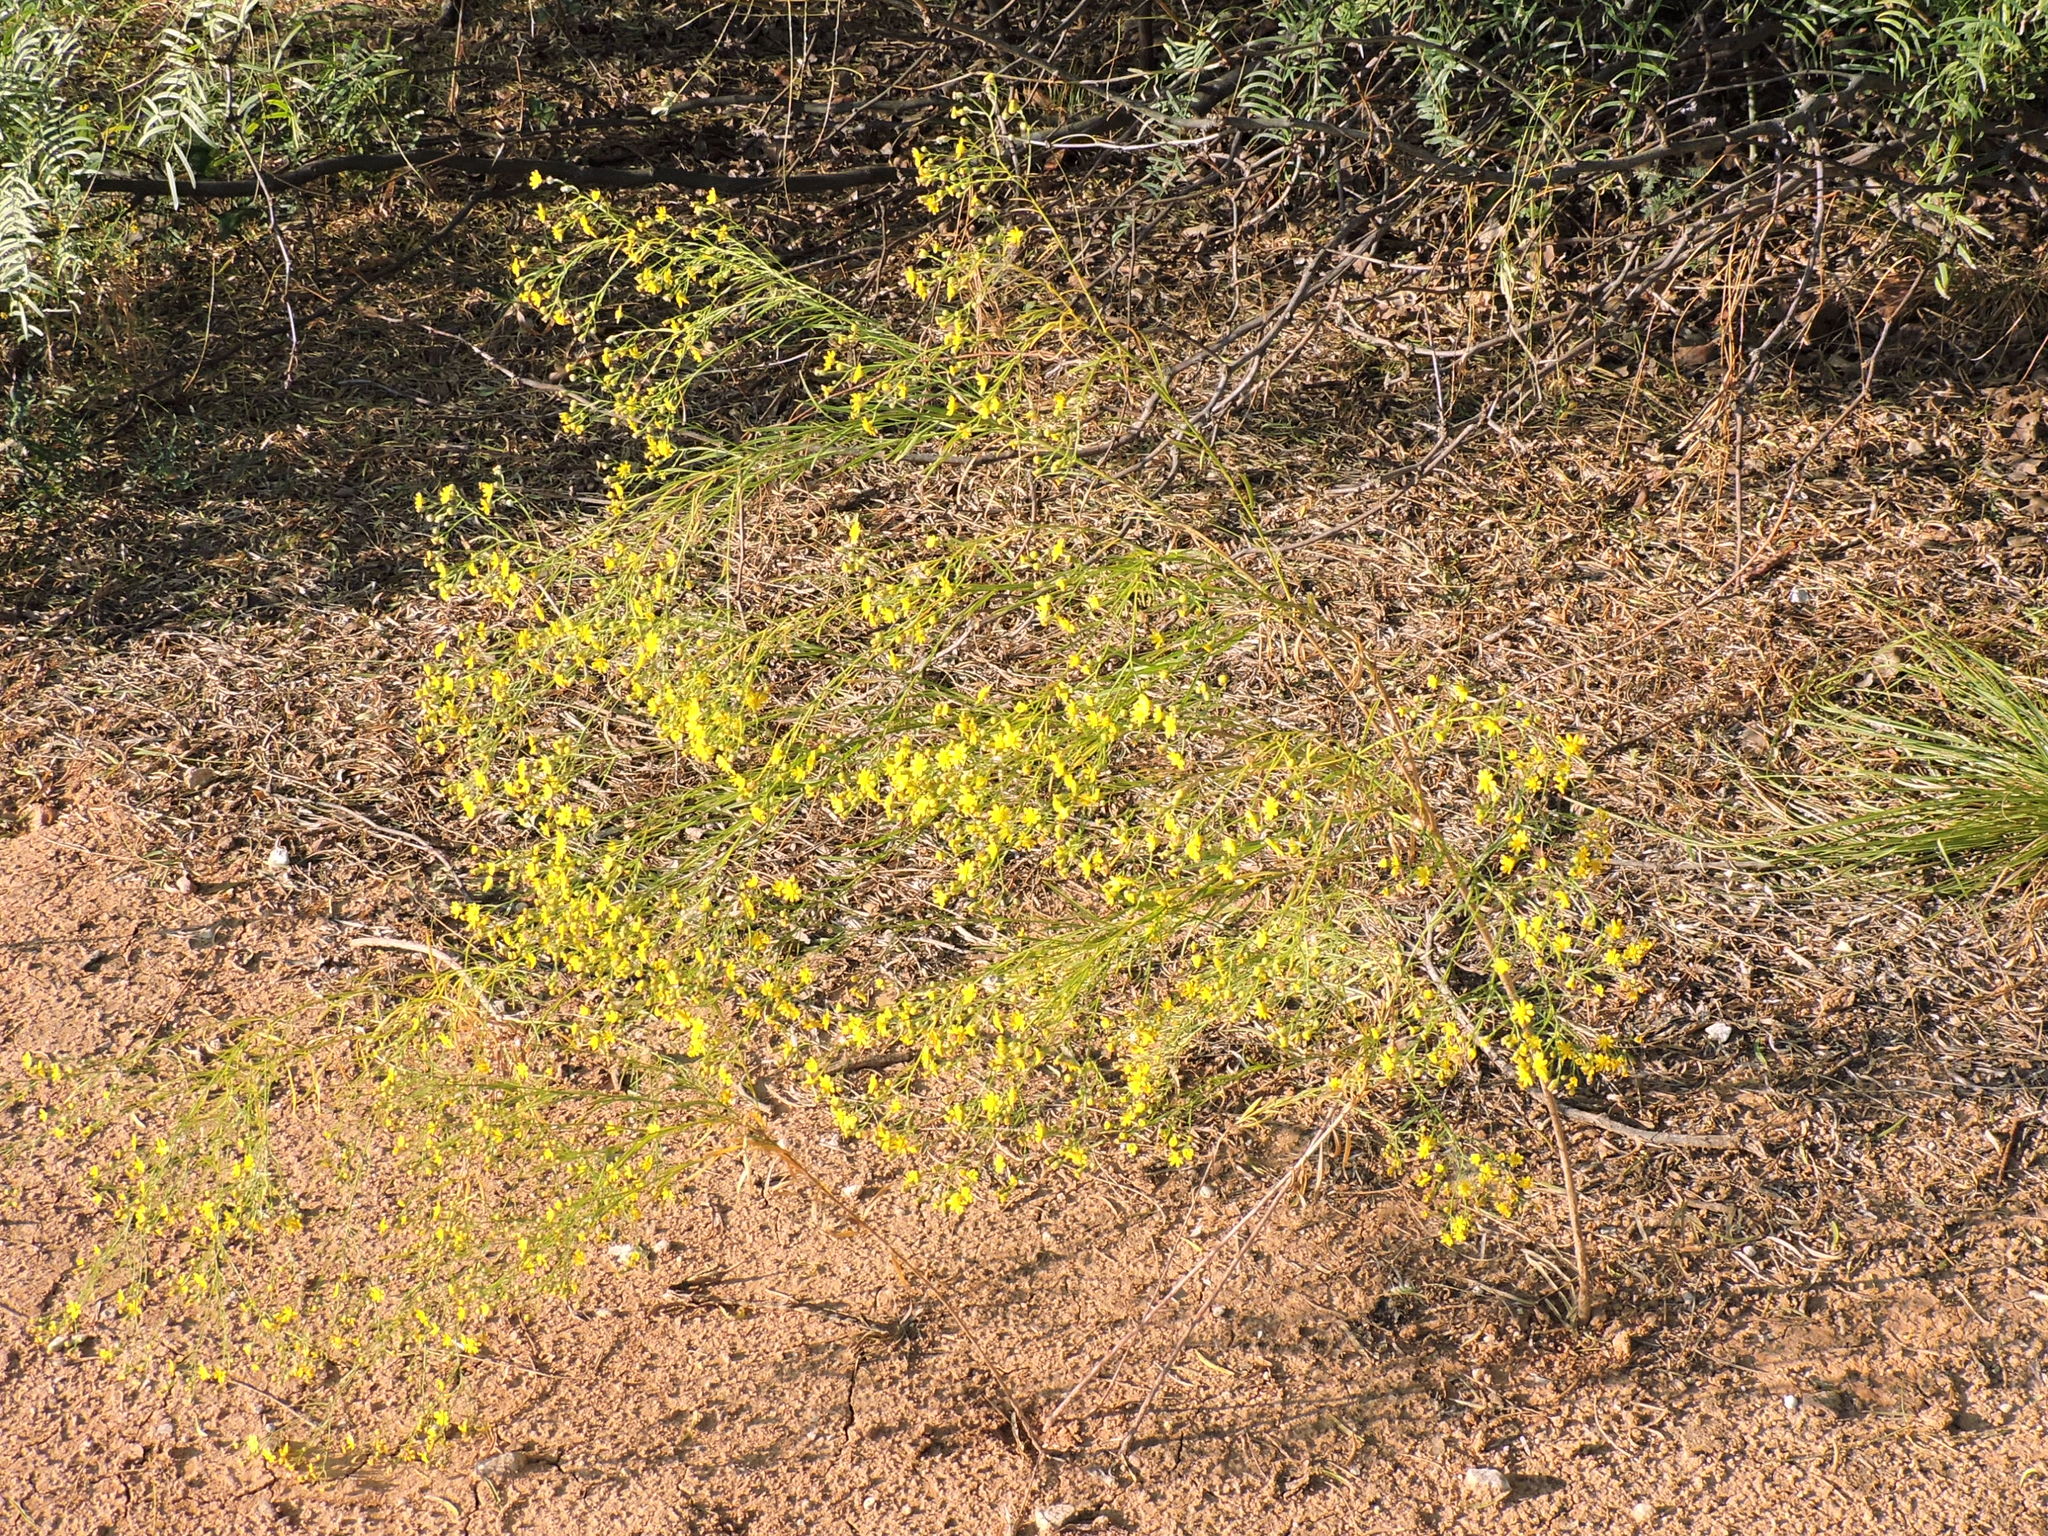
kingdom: Plantae
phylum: Tracheophyta
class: Magnoliopsida
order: Asterales
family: Asteraceae
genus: Amphiachyris
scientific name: Amphiachyris dracunculoides
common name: Broomweed
